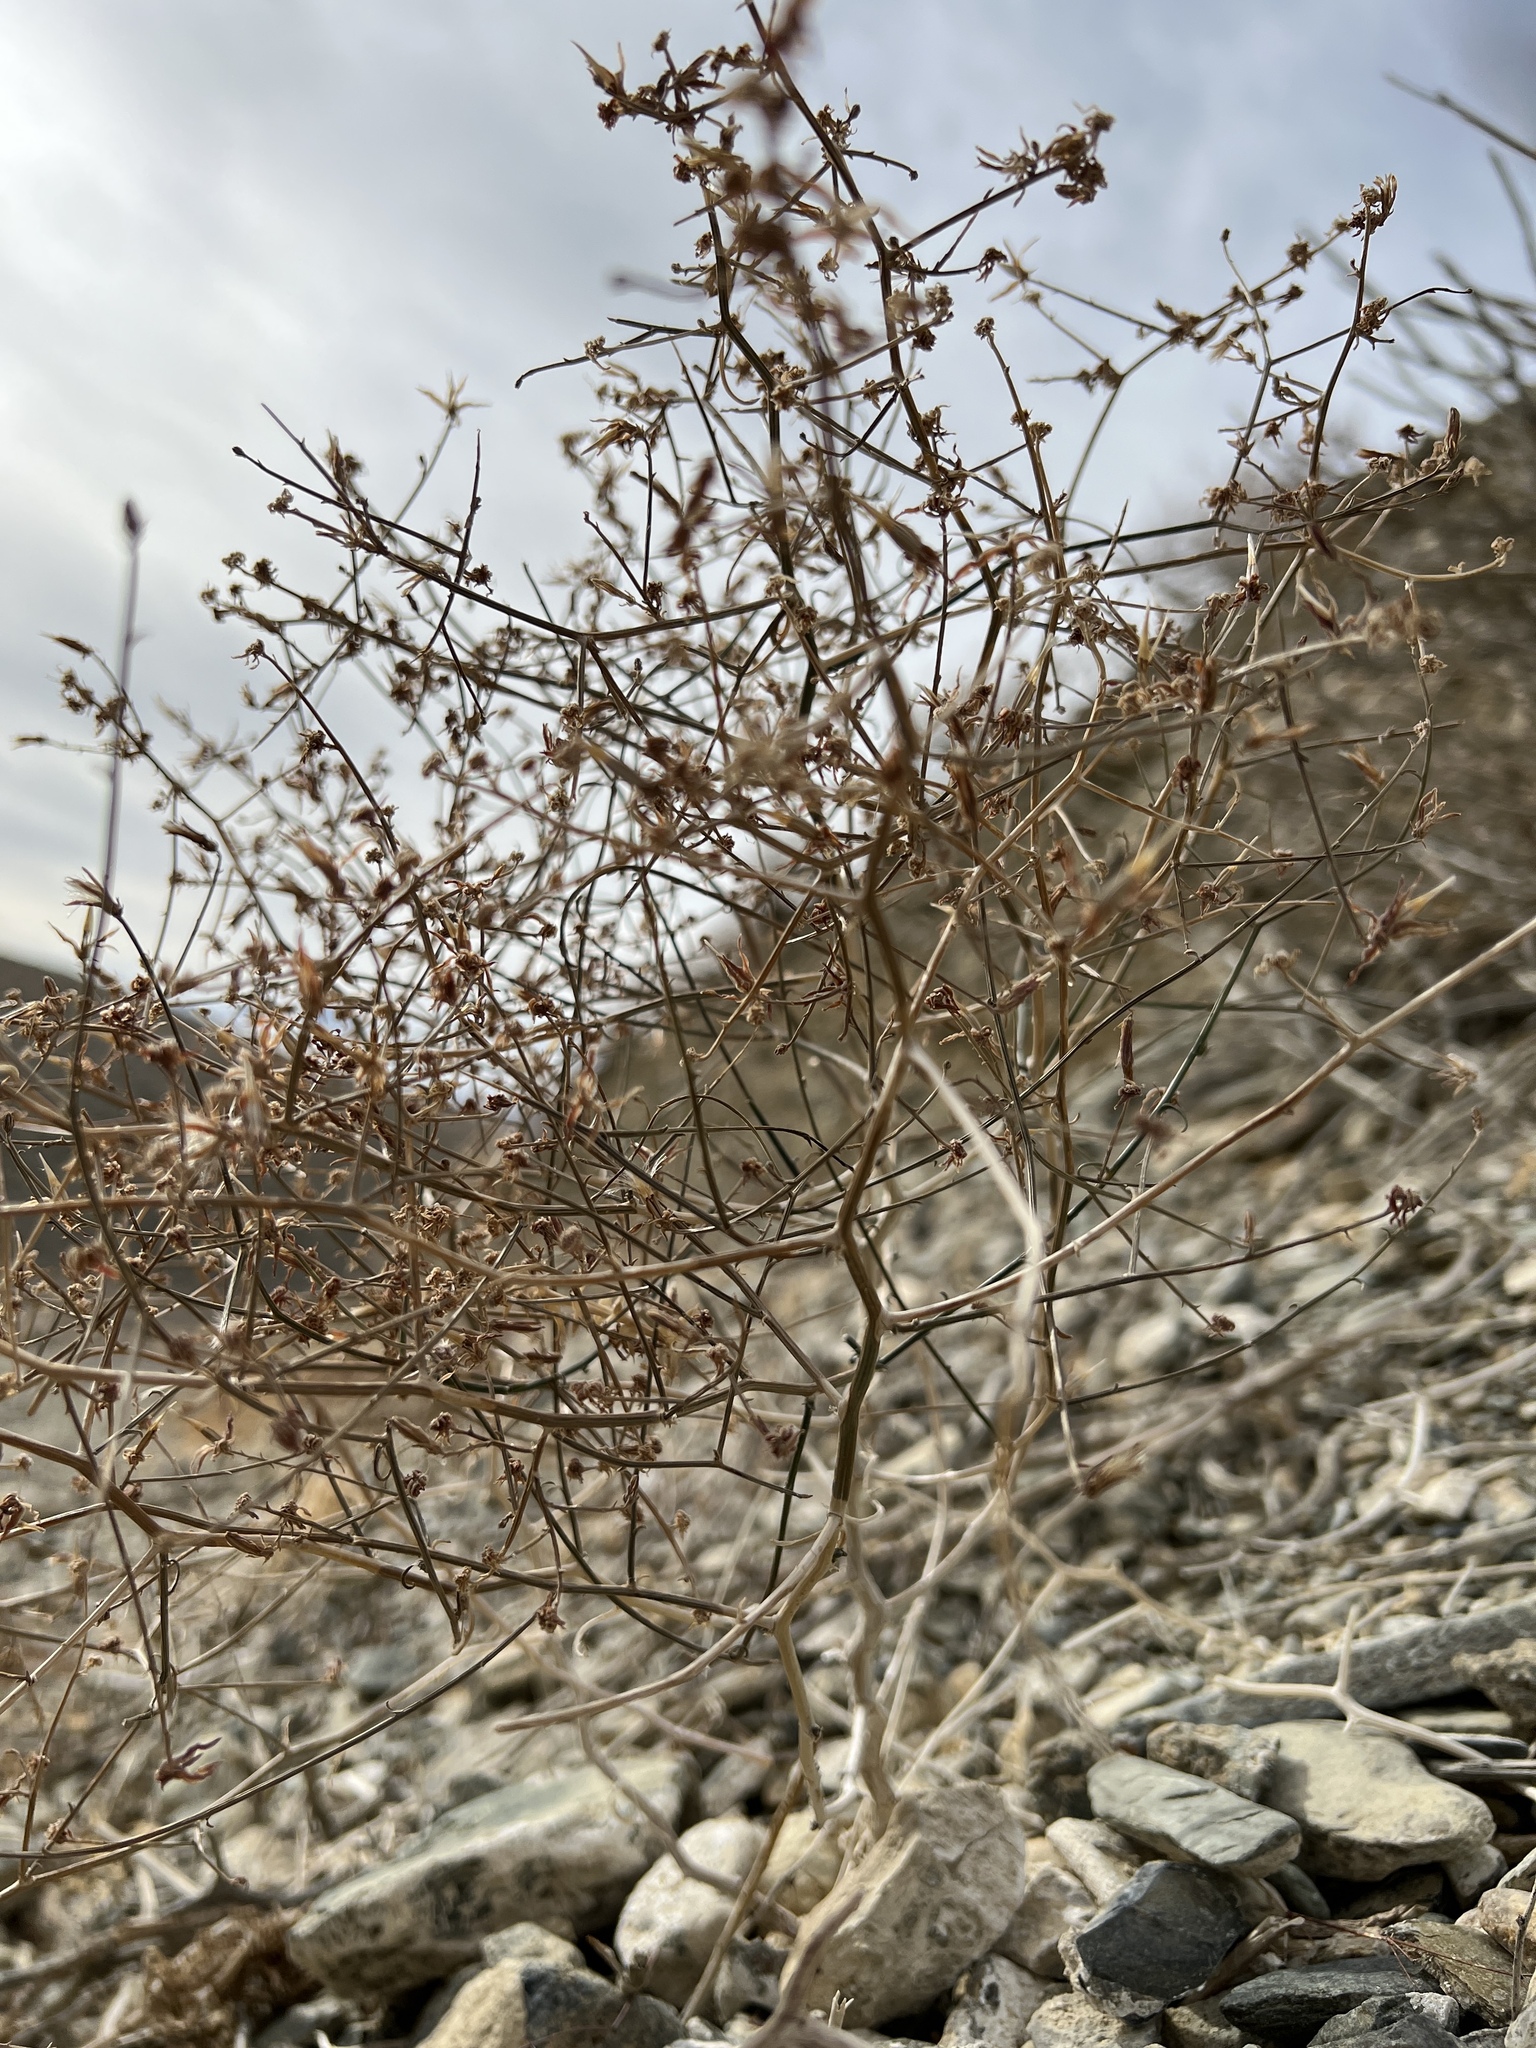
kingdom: Plantae
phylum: Tracheophyta
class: Magnoliopsida
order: Asterales
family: Asteraceae
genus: Stephanomeria
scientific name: Stephanomeria pauciflora
